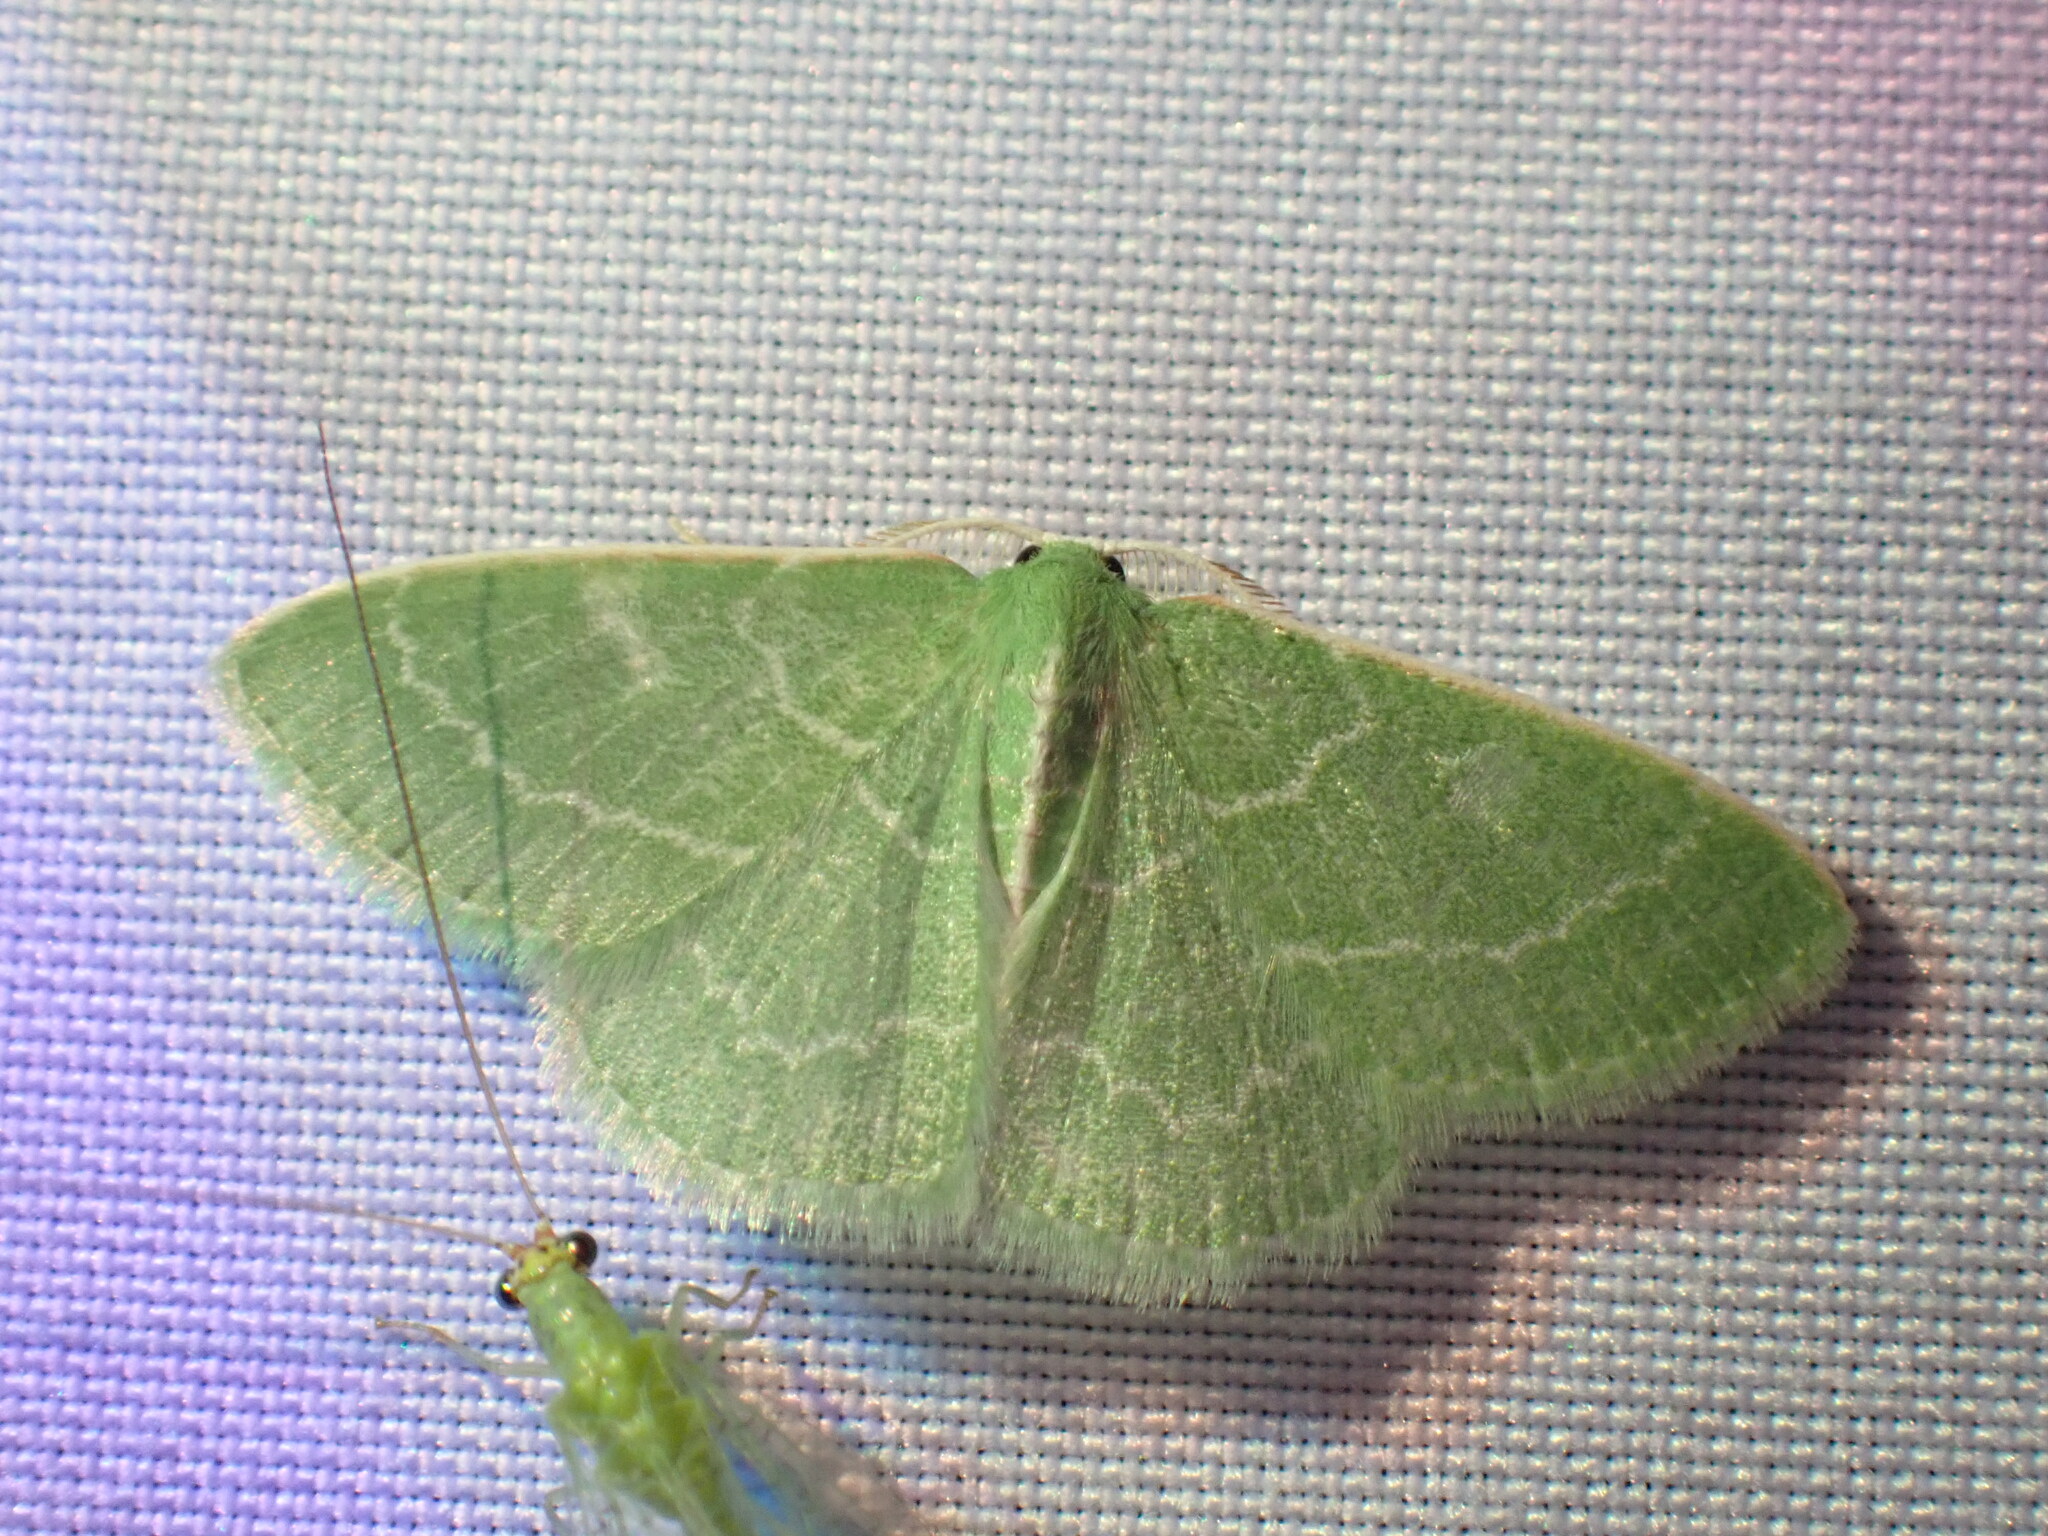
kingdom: Animalia
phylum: Arthropoda
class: Insecta
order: Lepidoptera
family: Geometridae
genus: Synchlora
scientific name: Synchlora aerata
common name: Wavy-lined emerald
